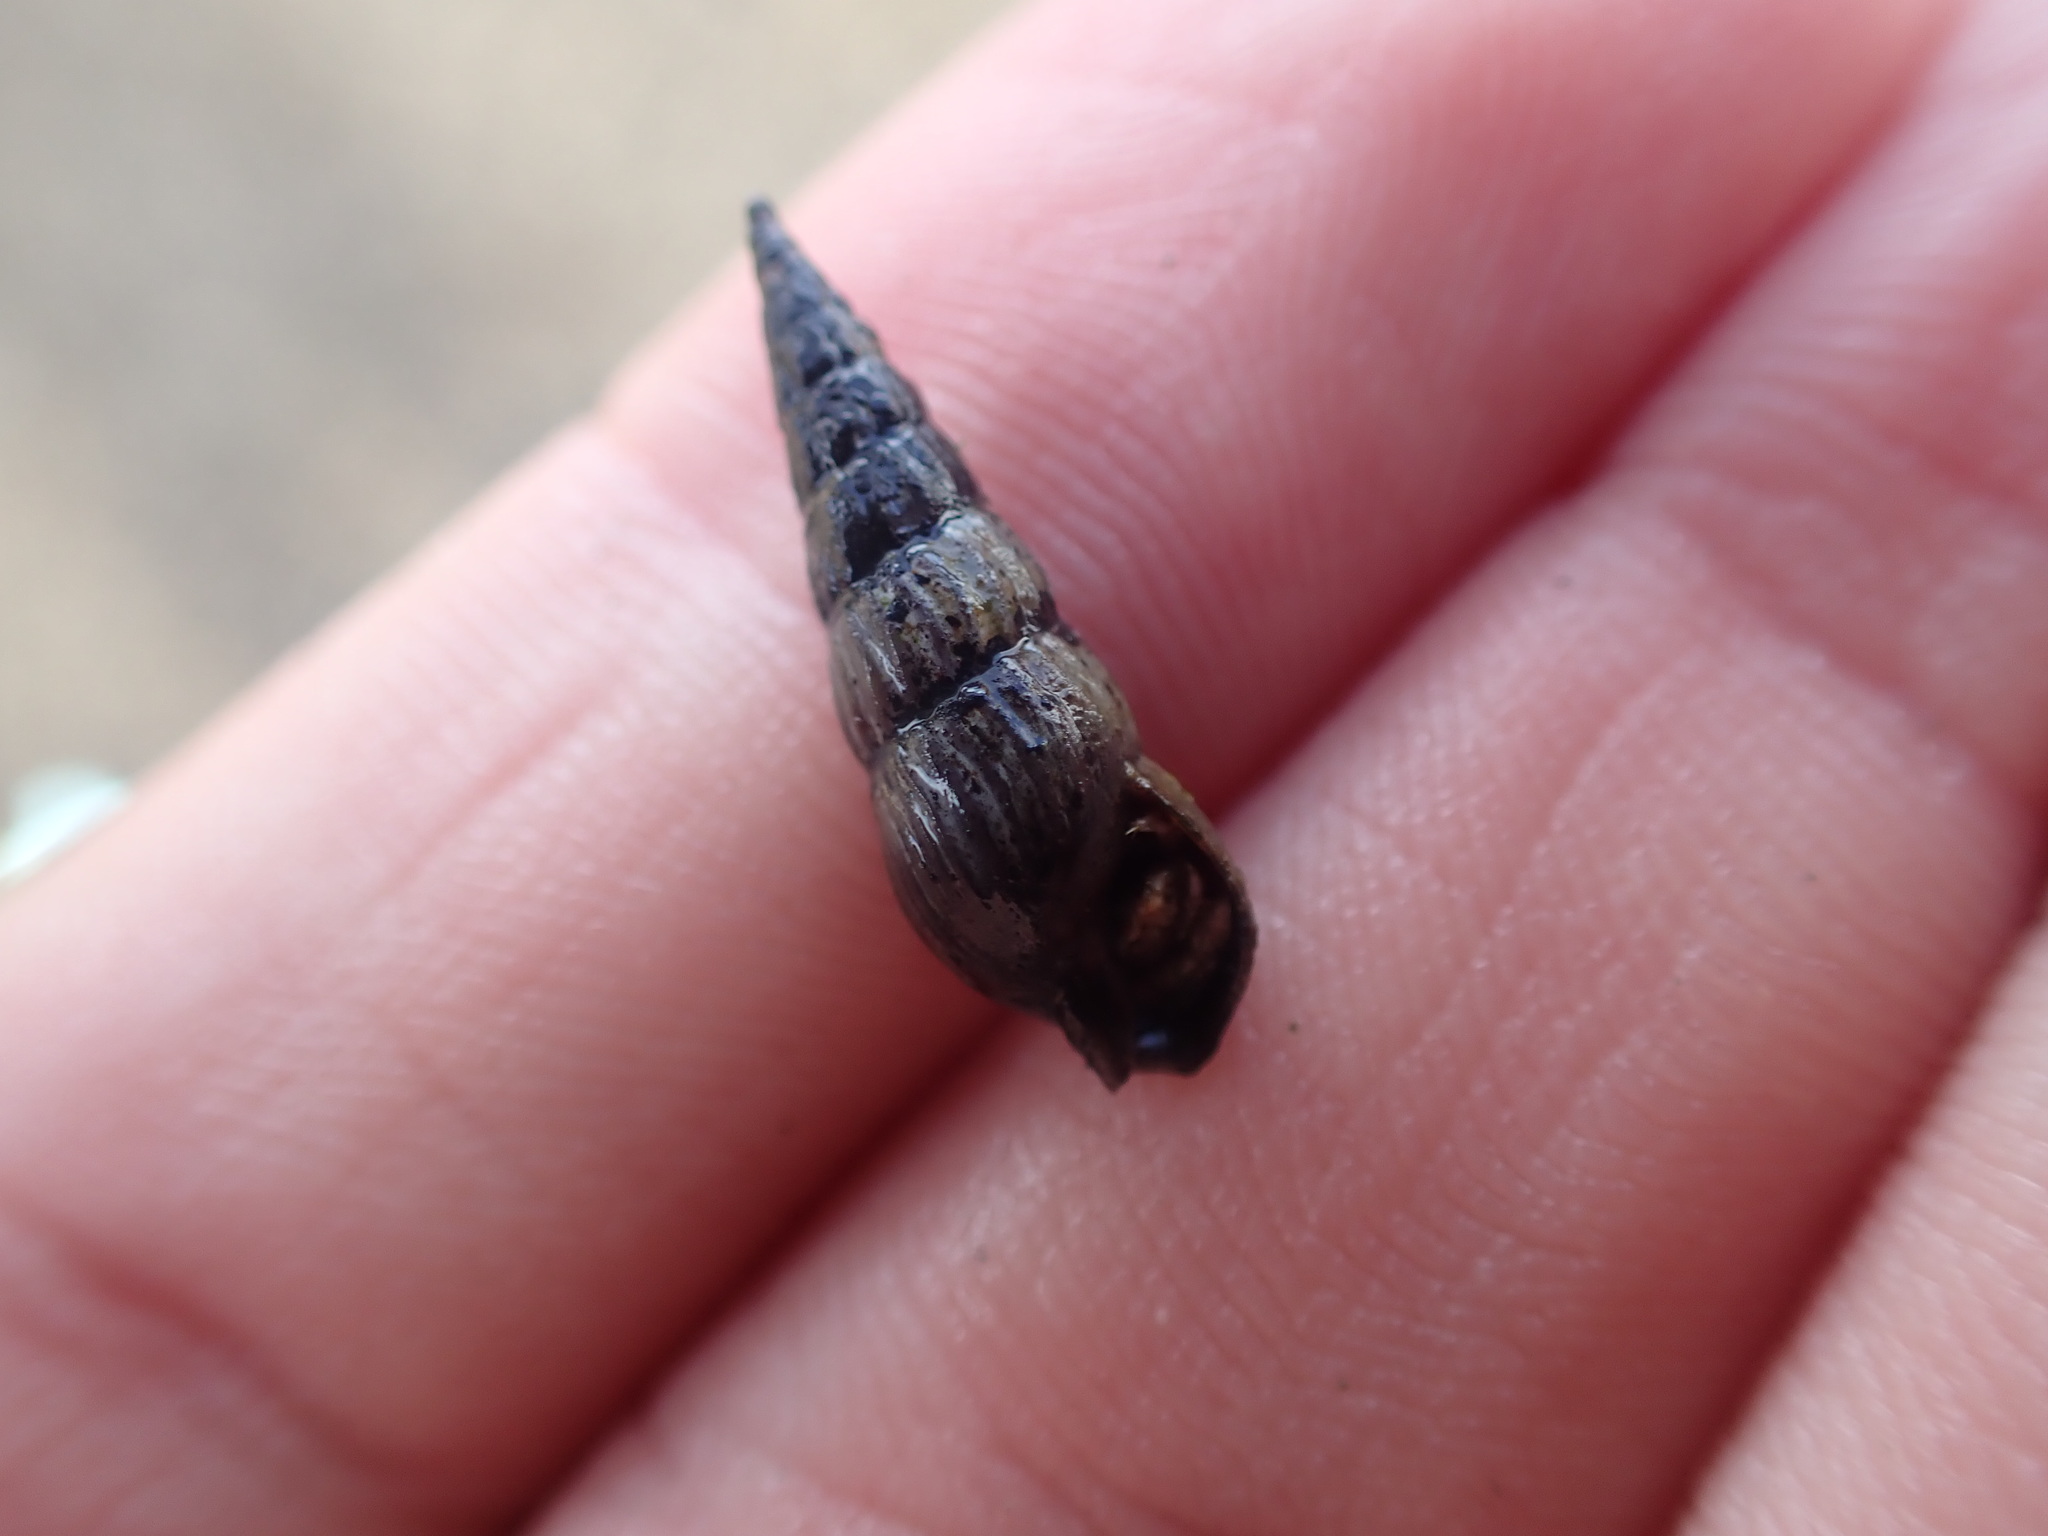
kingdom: Animalia
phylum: Mollusca
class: Gastropoda
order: Neogastropoda
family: Terebridae
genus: Duplicaria
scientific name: Duplicaria tristis
